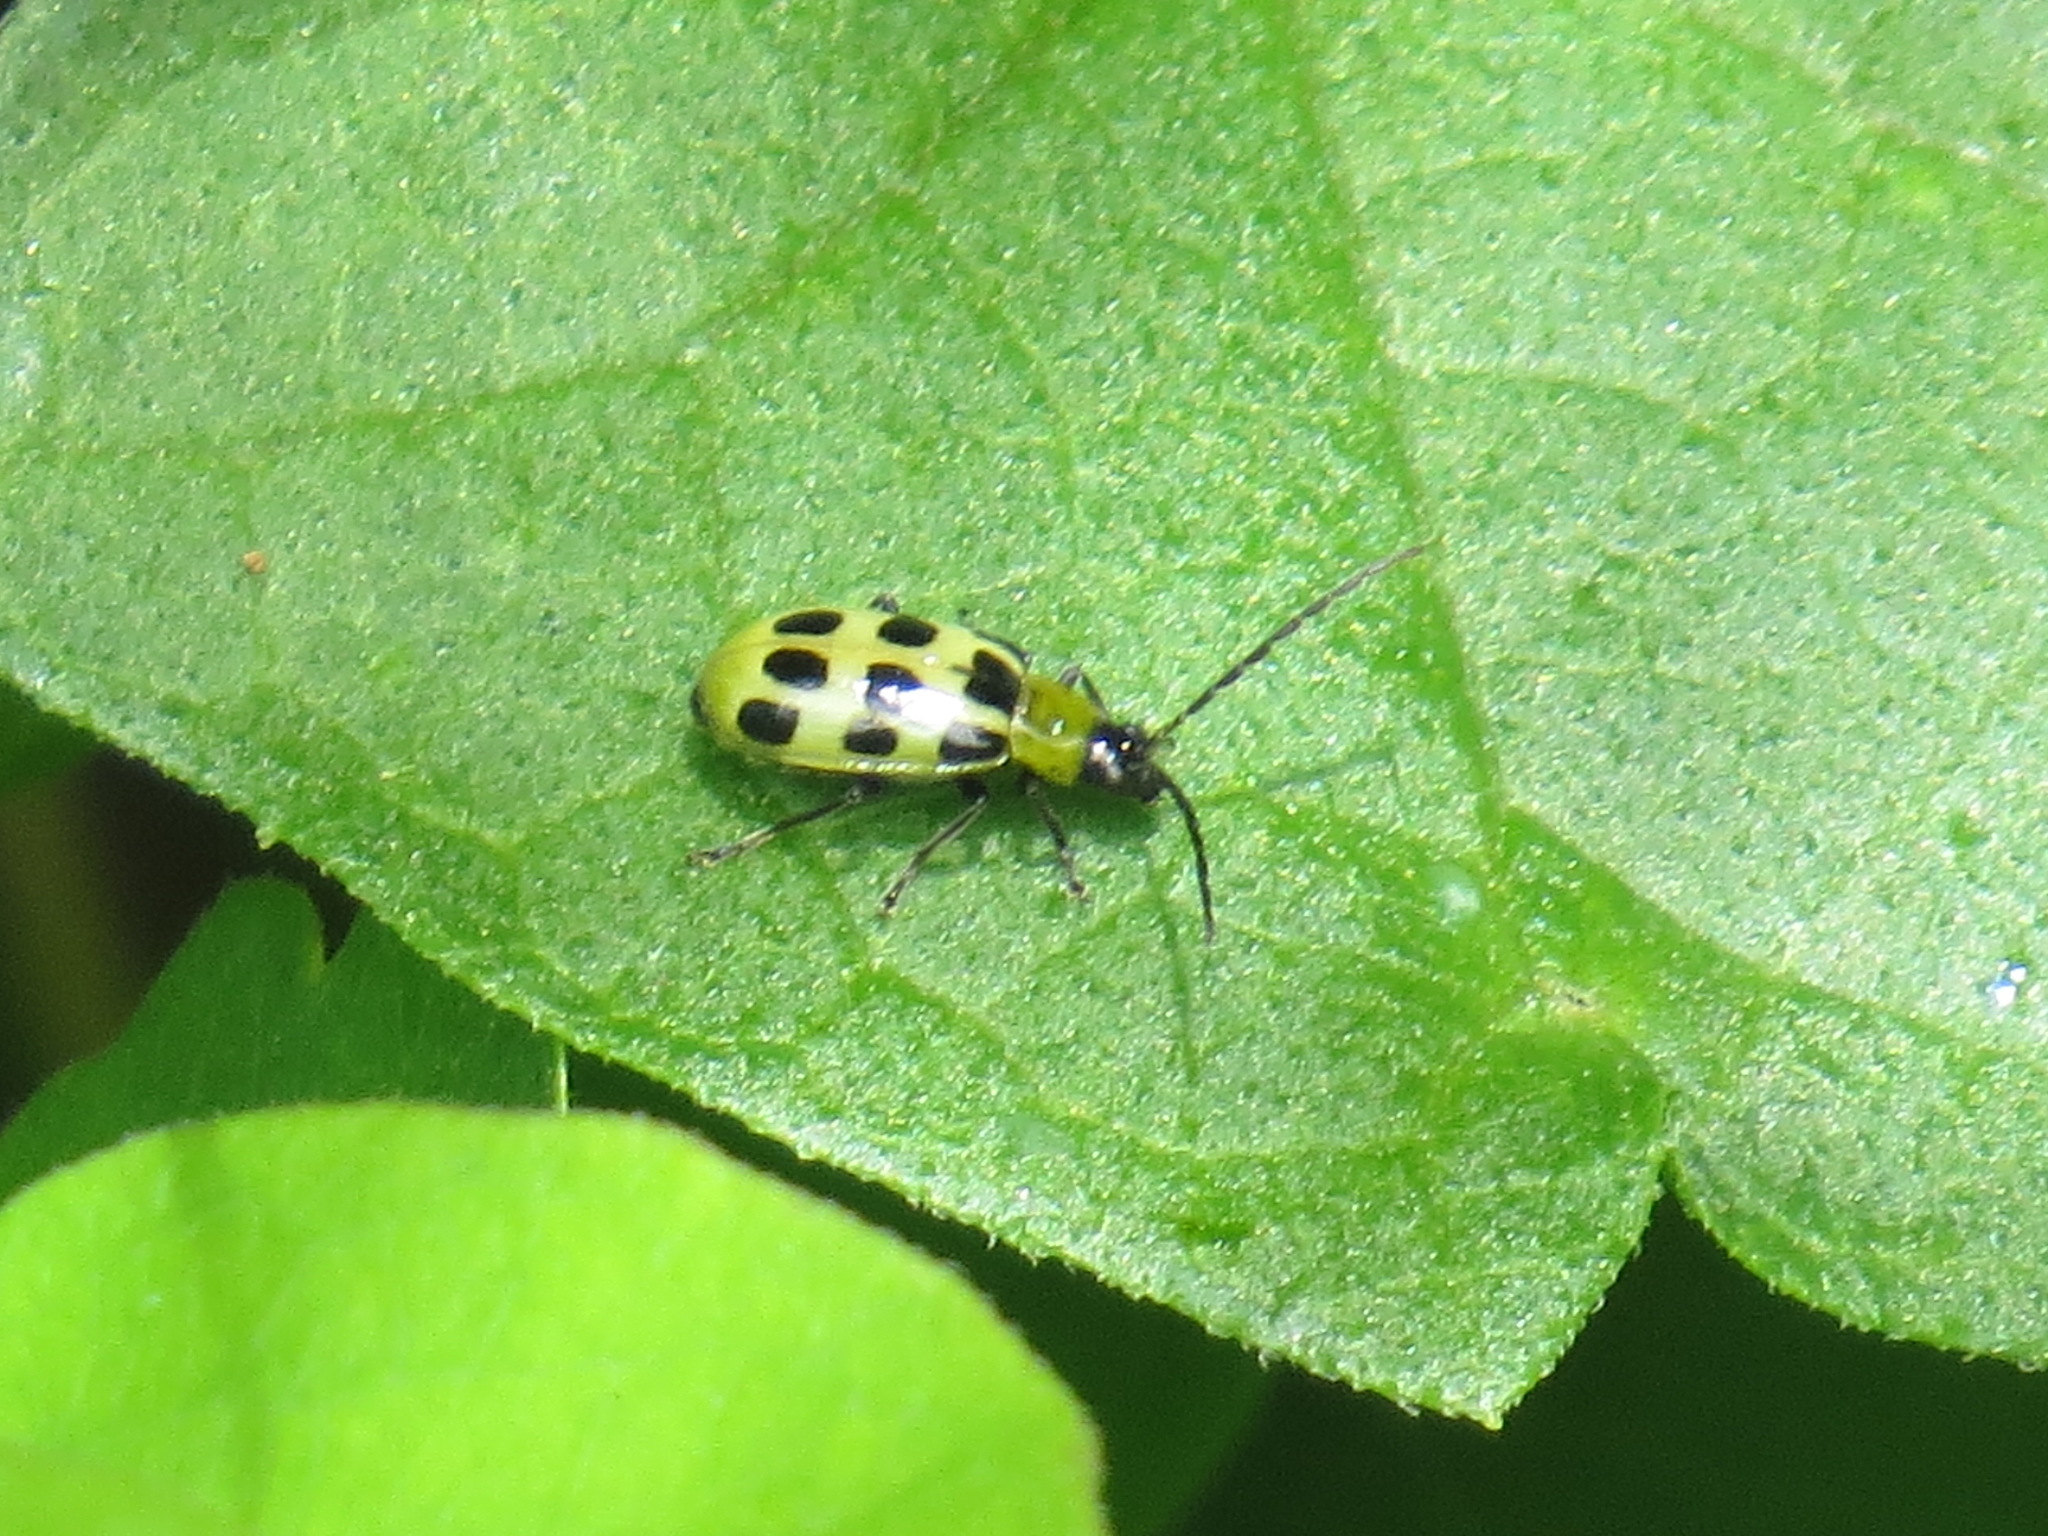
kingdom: Animalia
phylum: Arthropoda
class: Insecta
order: Coleoptera
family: Chrysomelidae
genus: Diabrotica
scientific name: Diabrotica undecimpunctata
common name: Spotted cucumber beetle
